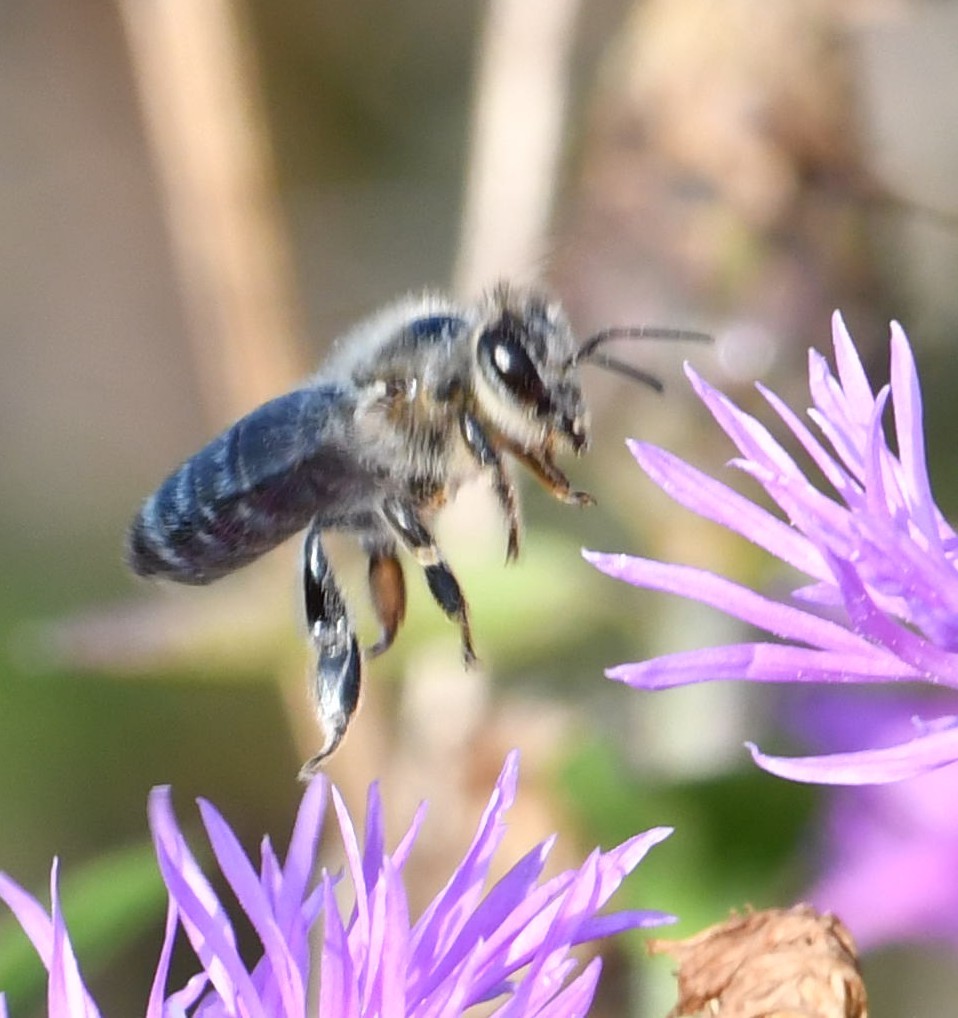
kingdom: Animalia
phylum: Arthropoda
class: Insecta
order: Hymenoptera
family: Apidae
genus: Apis
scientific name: Apis mellifera
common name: Honey bee
